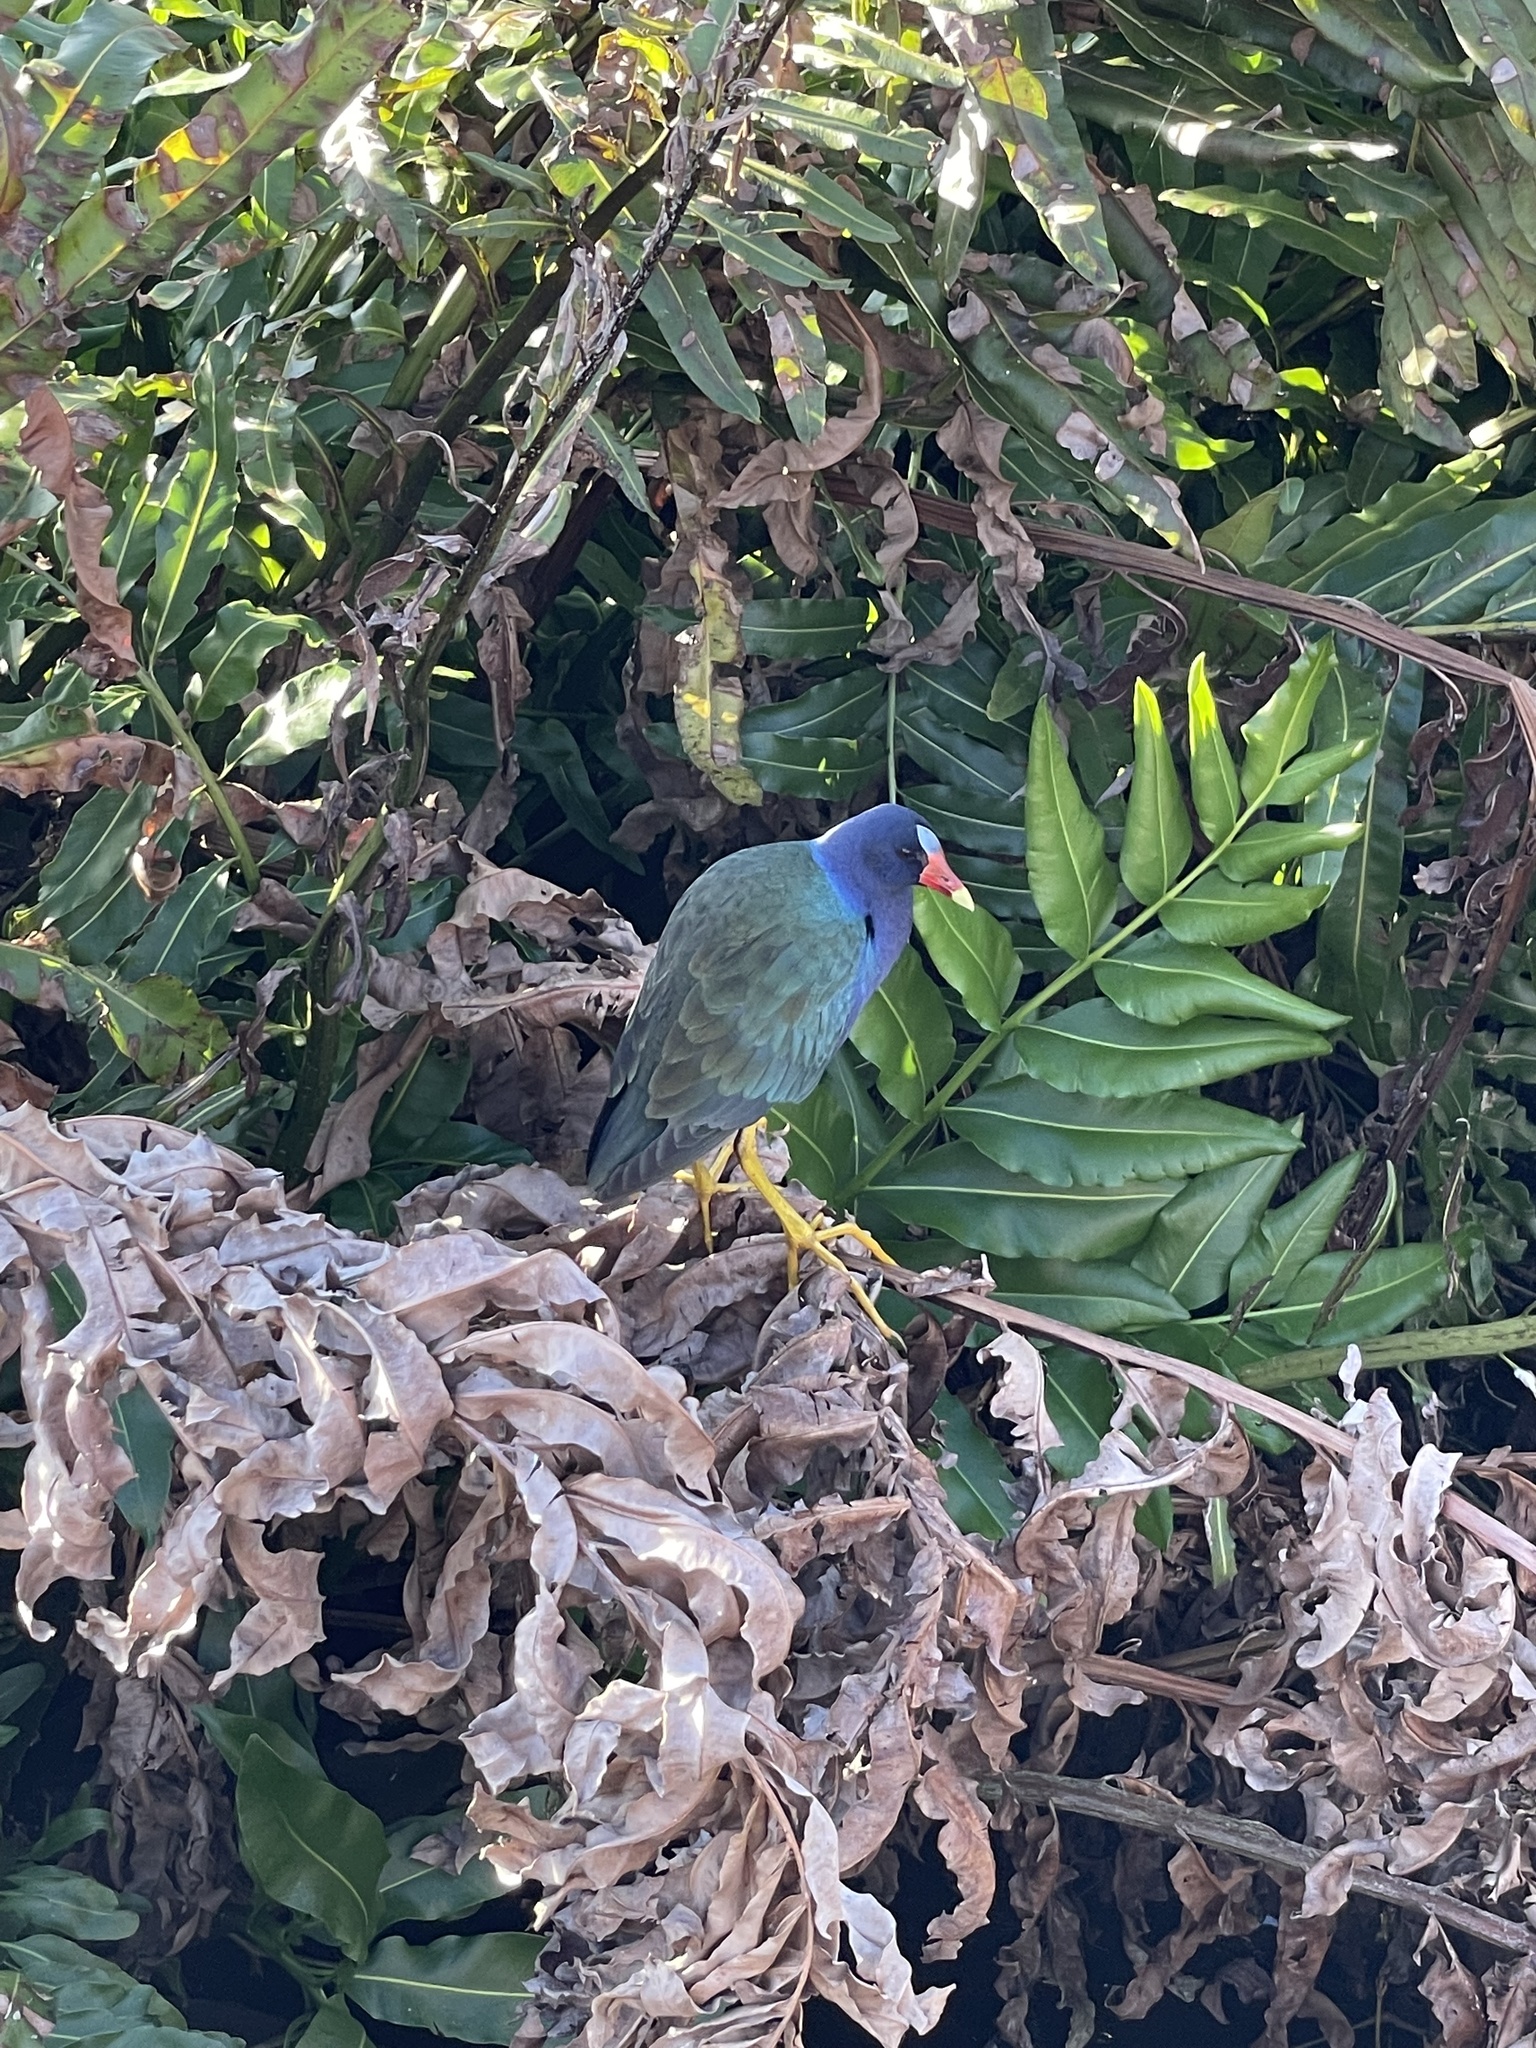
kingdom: Animalia
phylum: Chordata
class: Aves
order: Gruiformes
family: Rallidae
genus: Porphyrio
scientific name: Porphyrio martinica
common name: Purple gallinule
